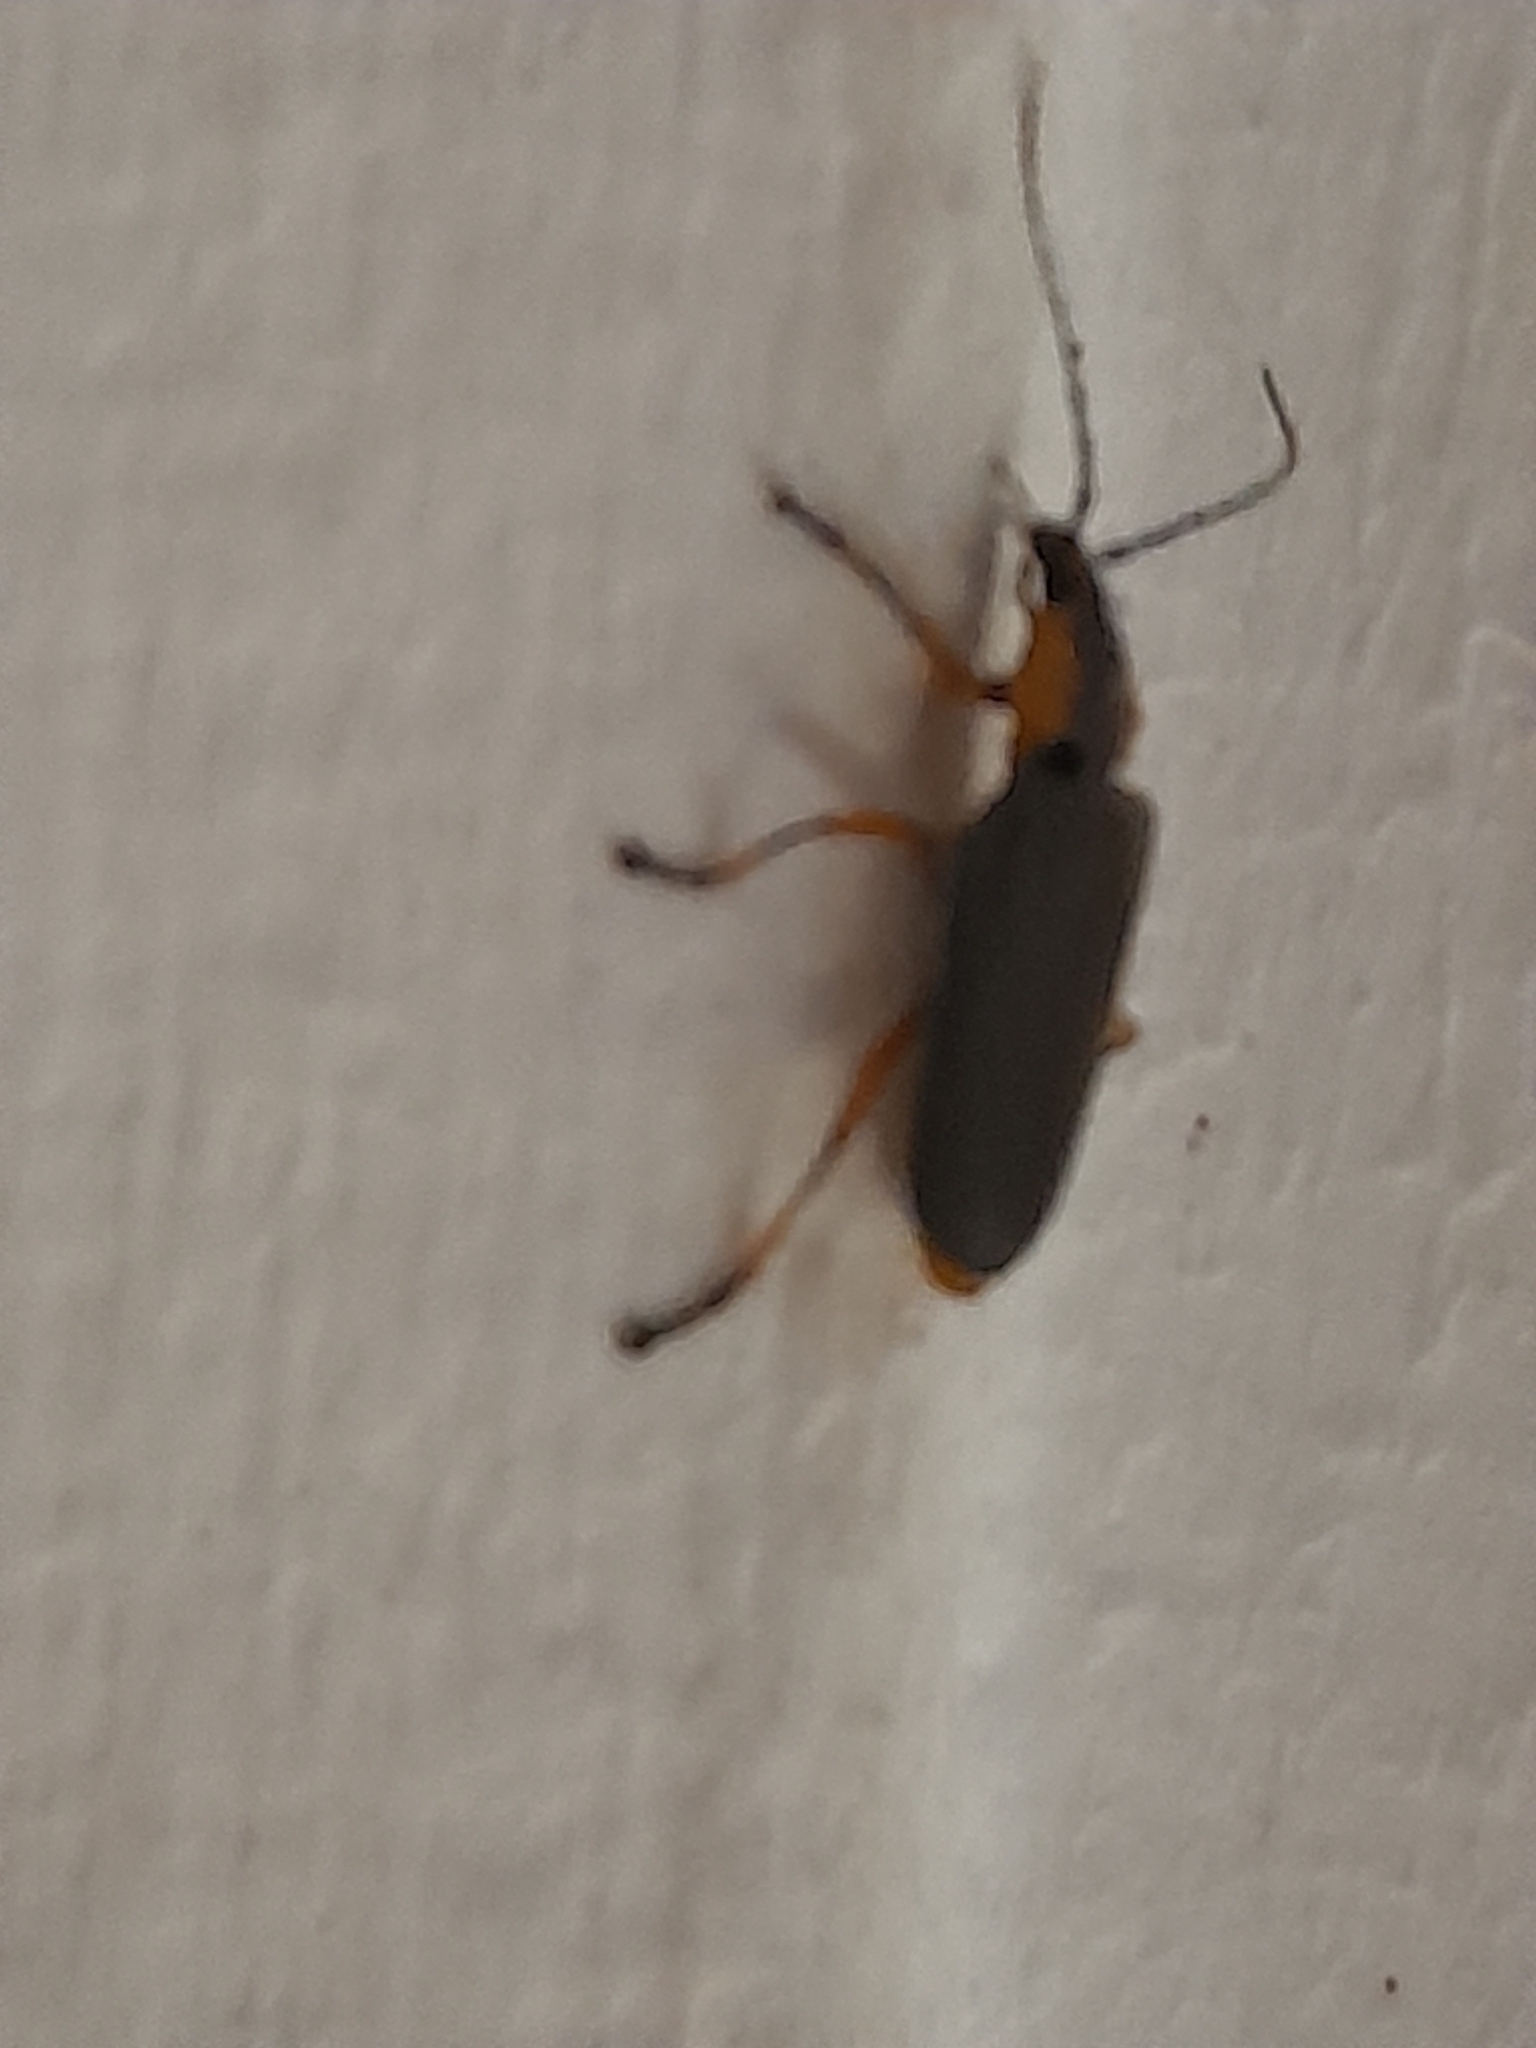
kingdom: Animalia
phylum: Arthropoda
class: Insecta
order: Coleoptera
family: Cantharidae
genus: Afronycha
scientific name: Afronycha
